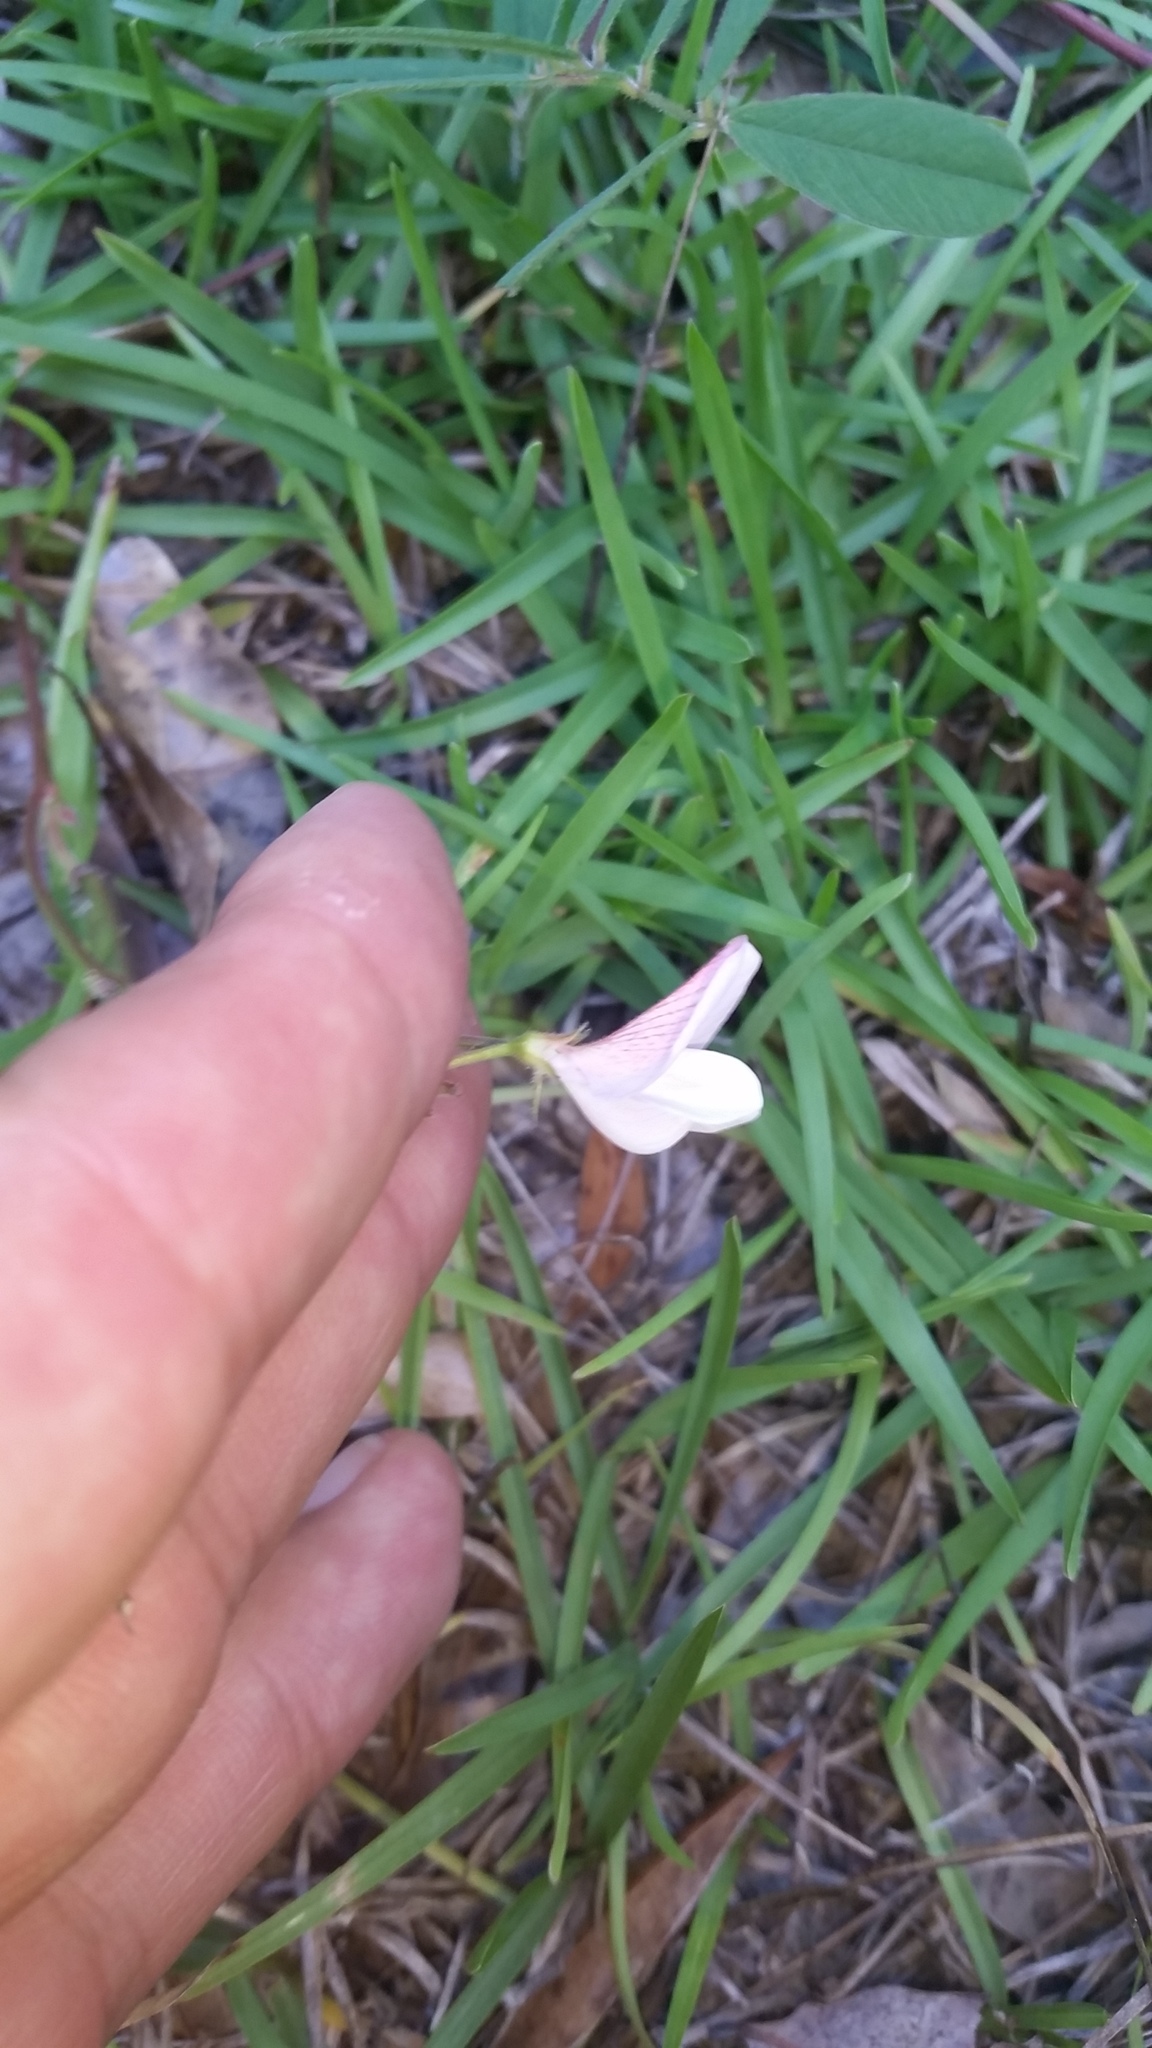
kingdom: Plantae
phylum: Tracheophyta
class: Magnoliopsida
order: Fabales
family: Fabaceae
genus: Tephrosia
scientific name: Tephrosia florida
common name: Florida hoary-pea
